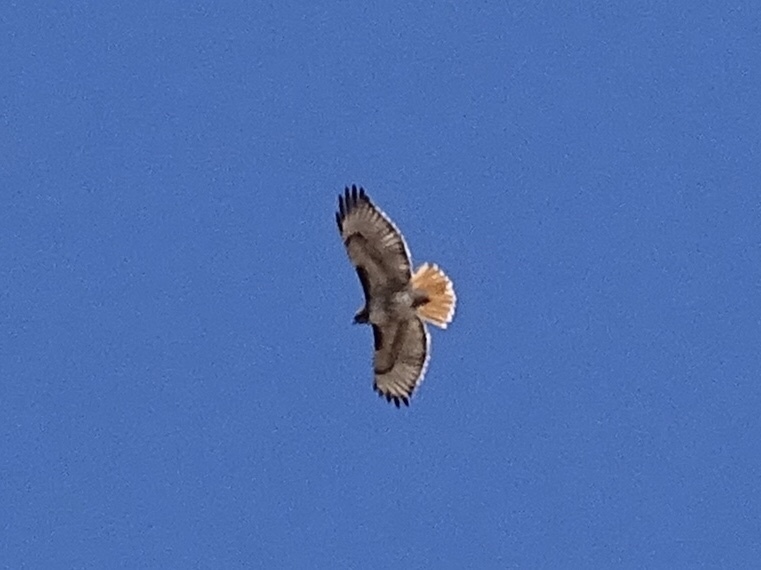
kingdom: Animalia
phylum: Chordata
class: Aves
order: Accipitriformes
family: Accipitridae
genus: Buteo
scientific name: Buteo jamaicensis
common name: Red-tailed hawk
